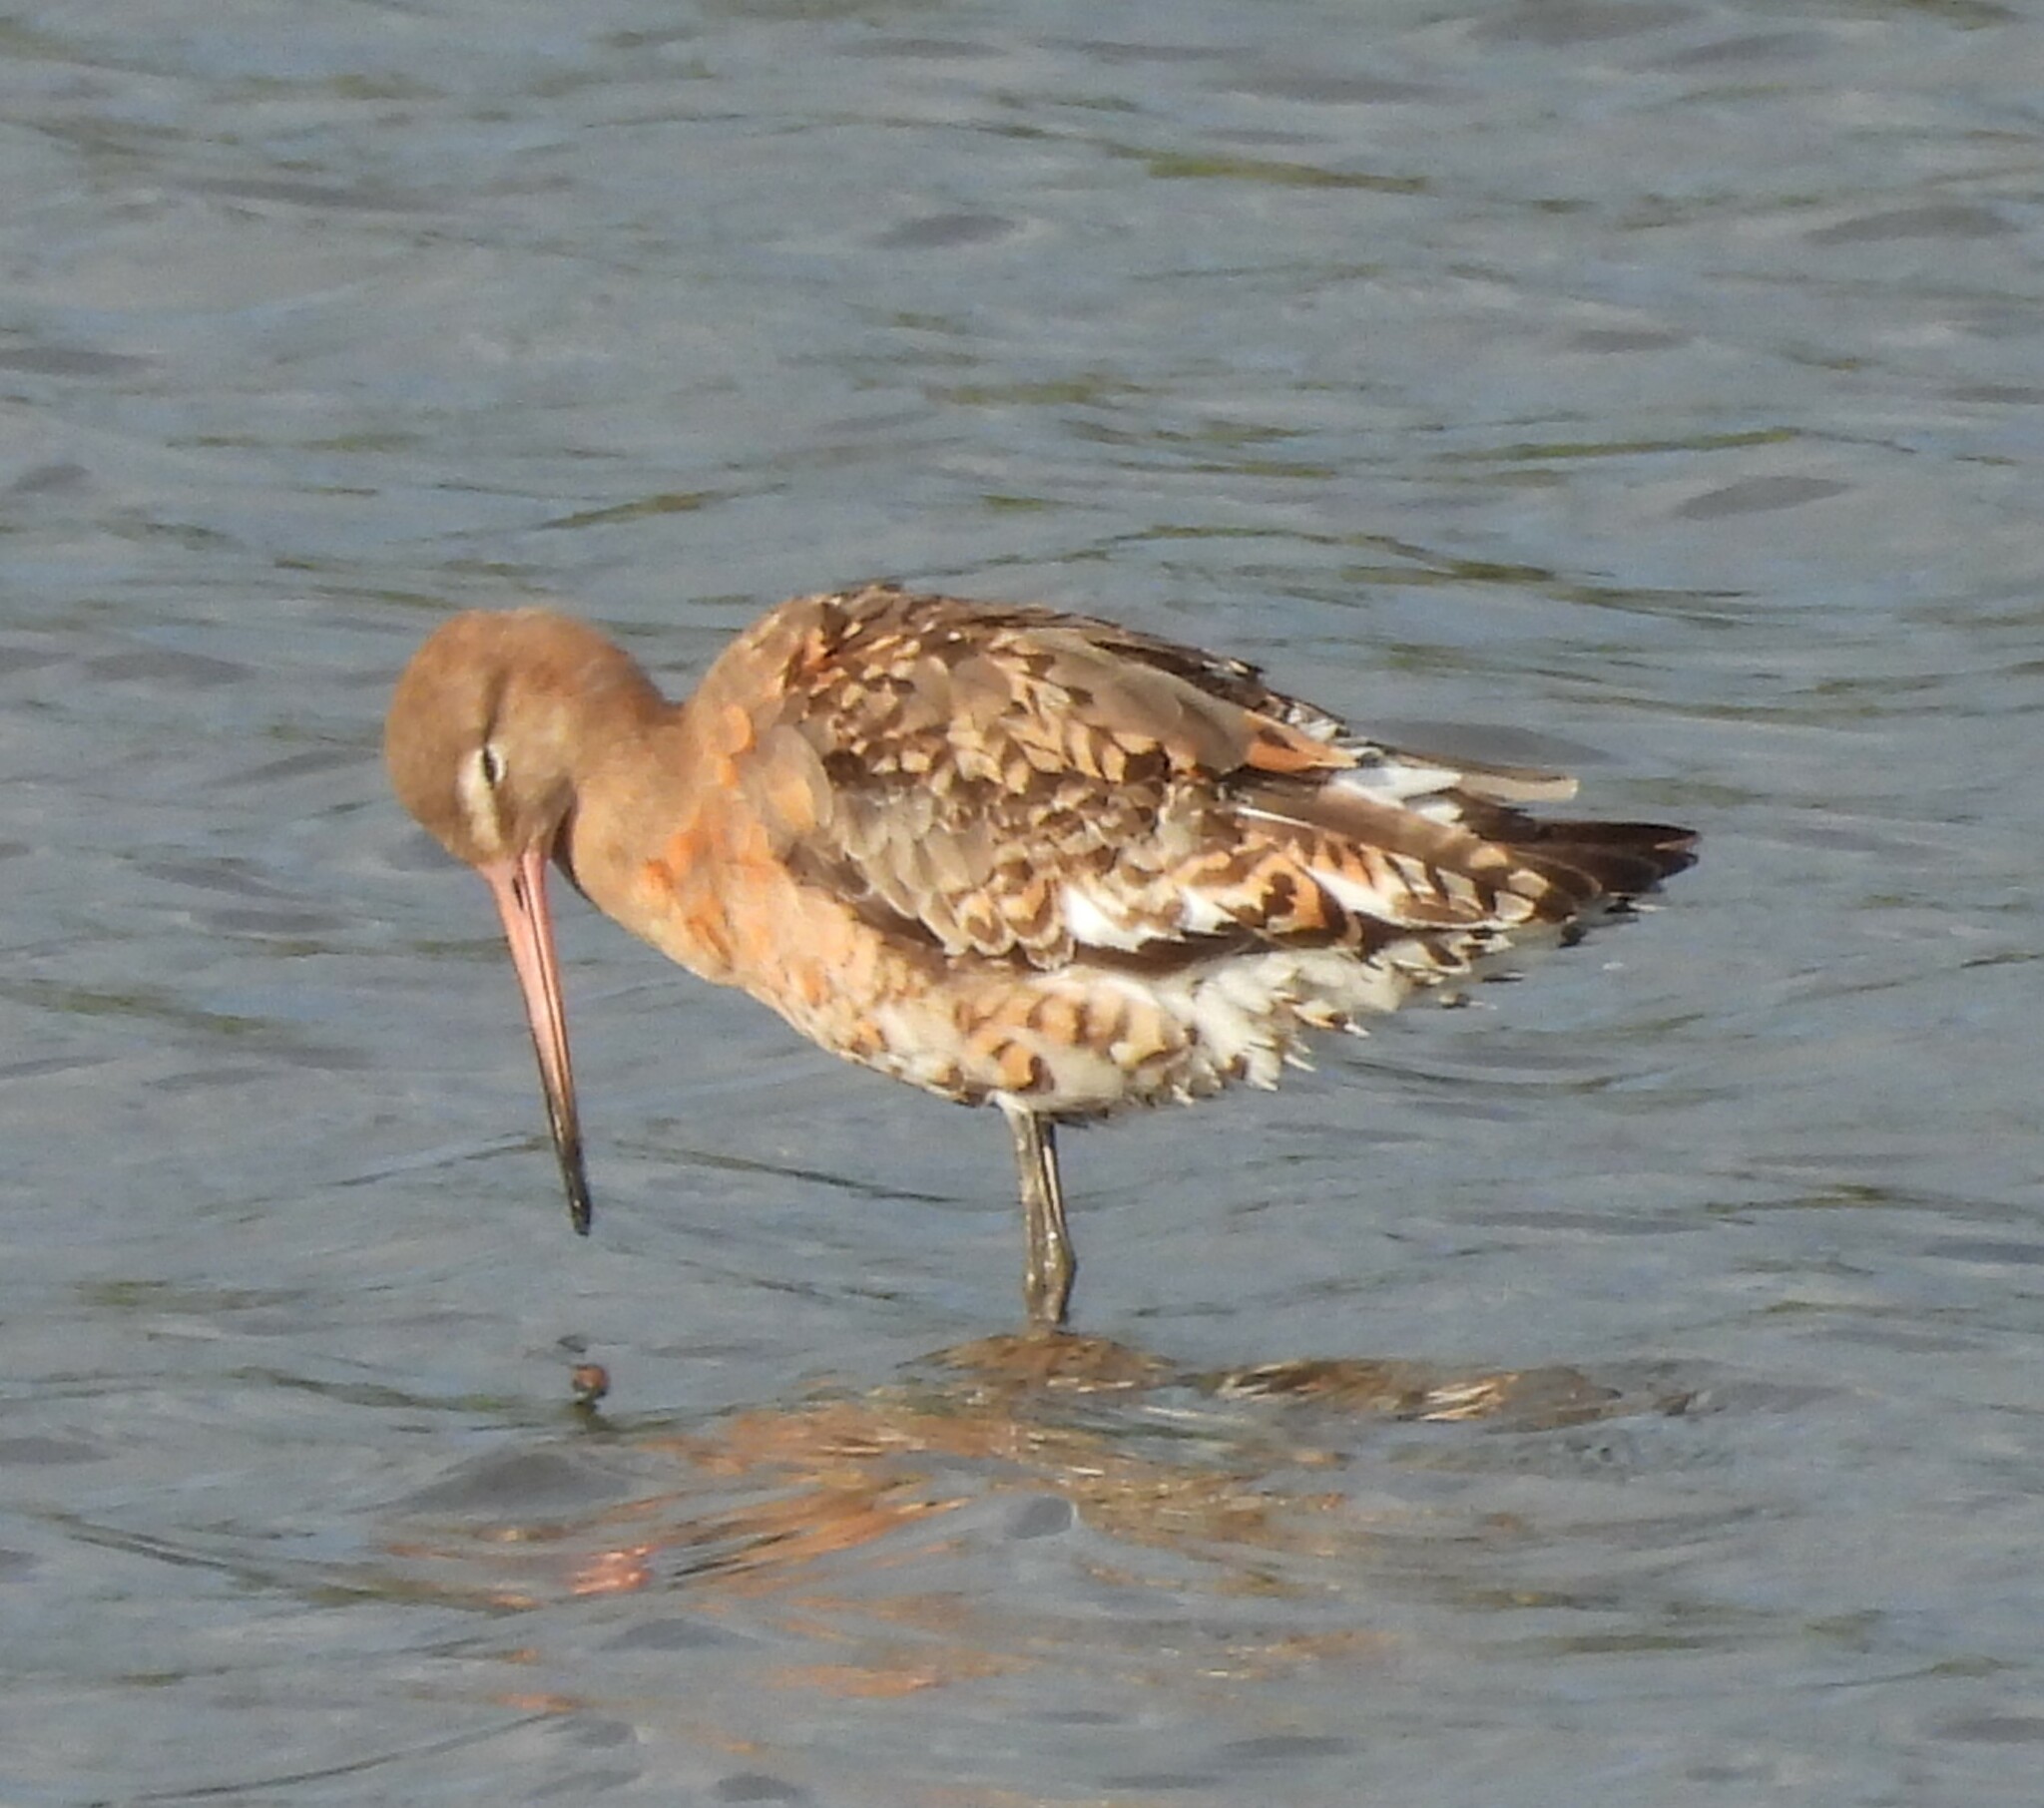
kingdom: Animalia
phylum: Chordata
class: Aves
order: Charadriiformes
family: Scolopacidae
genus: Limosa
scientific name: Limosa limosa
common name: Black-tailed godwit
